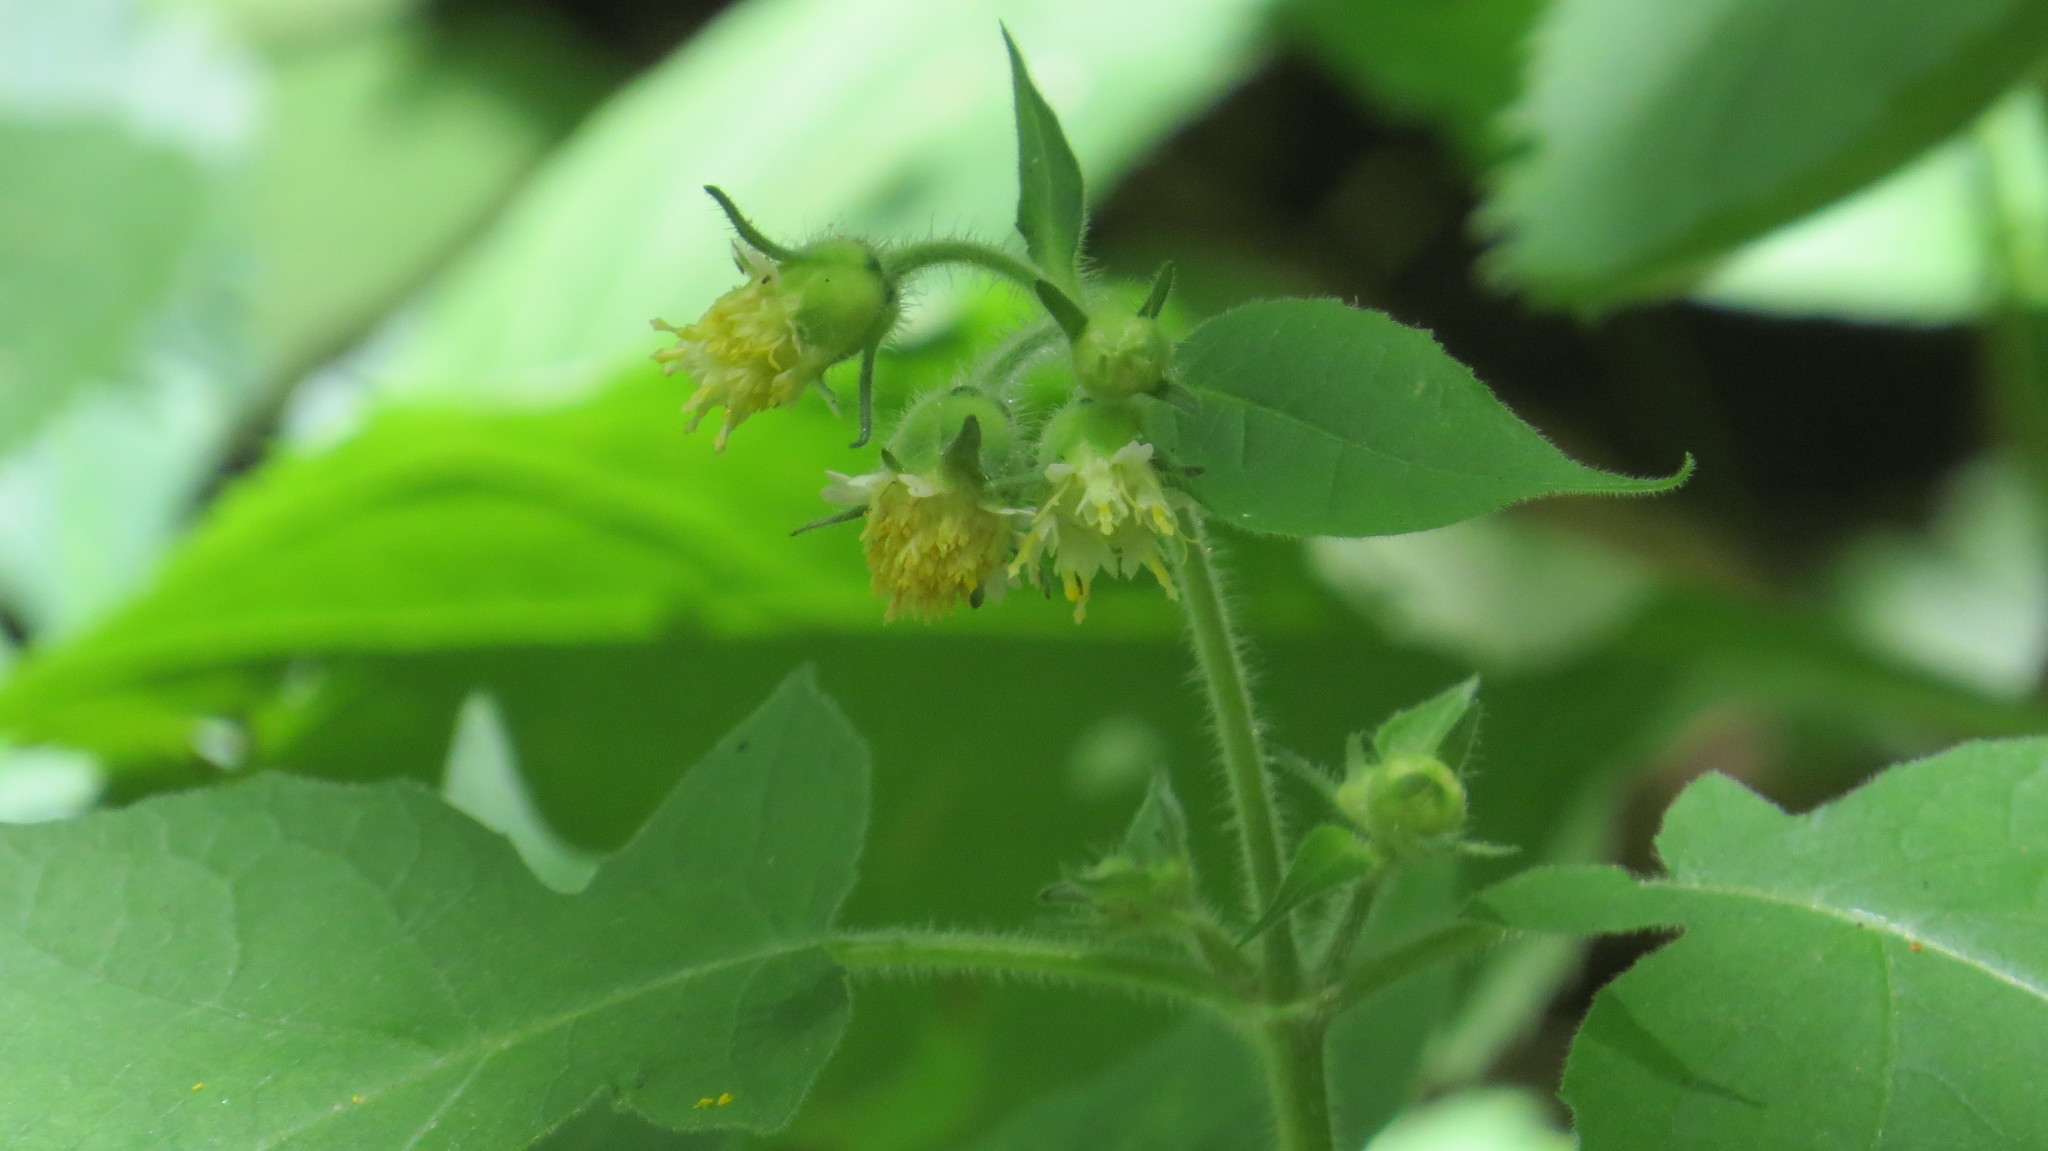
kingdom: Plantae
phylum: Tracheophyta
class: Magnoliopsida
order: Asterales
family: Asteraceae
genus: Polymnia
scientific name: Polymnia canadensis
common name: Pale-flowered leafcup
